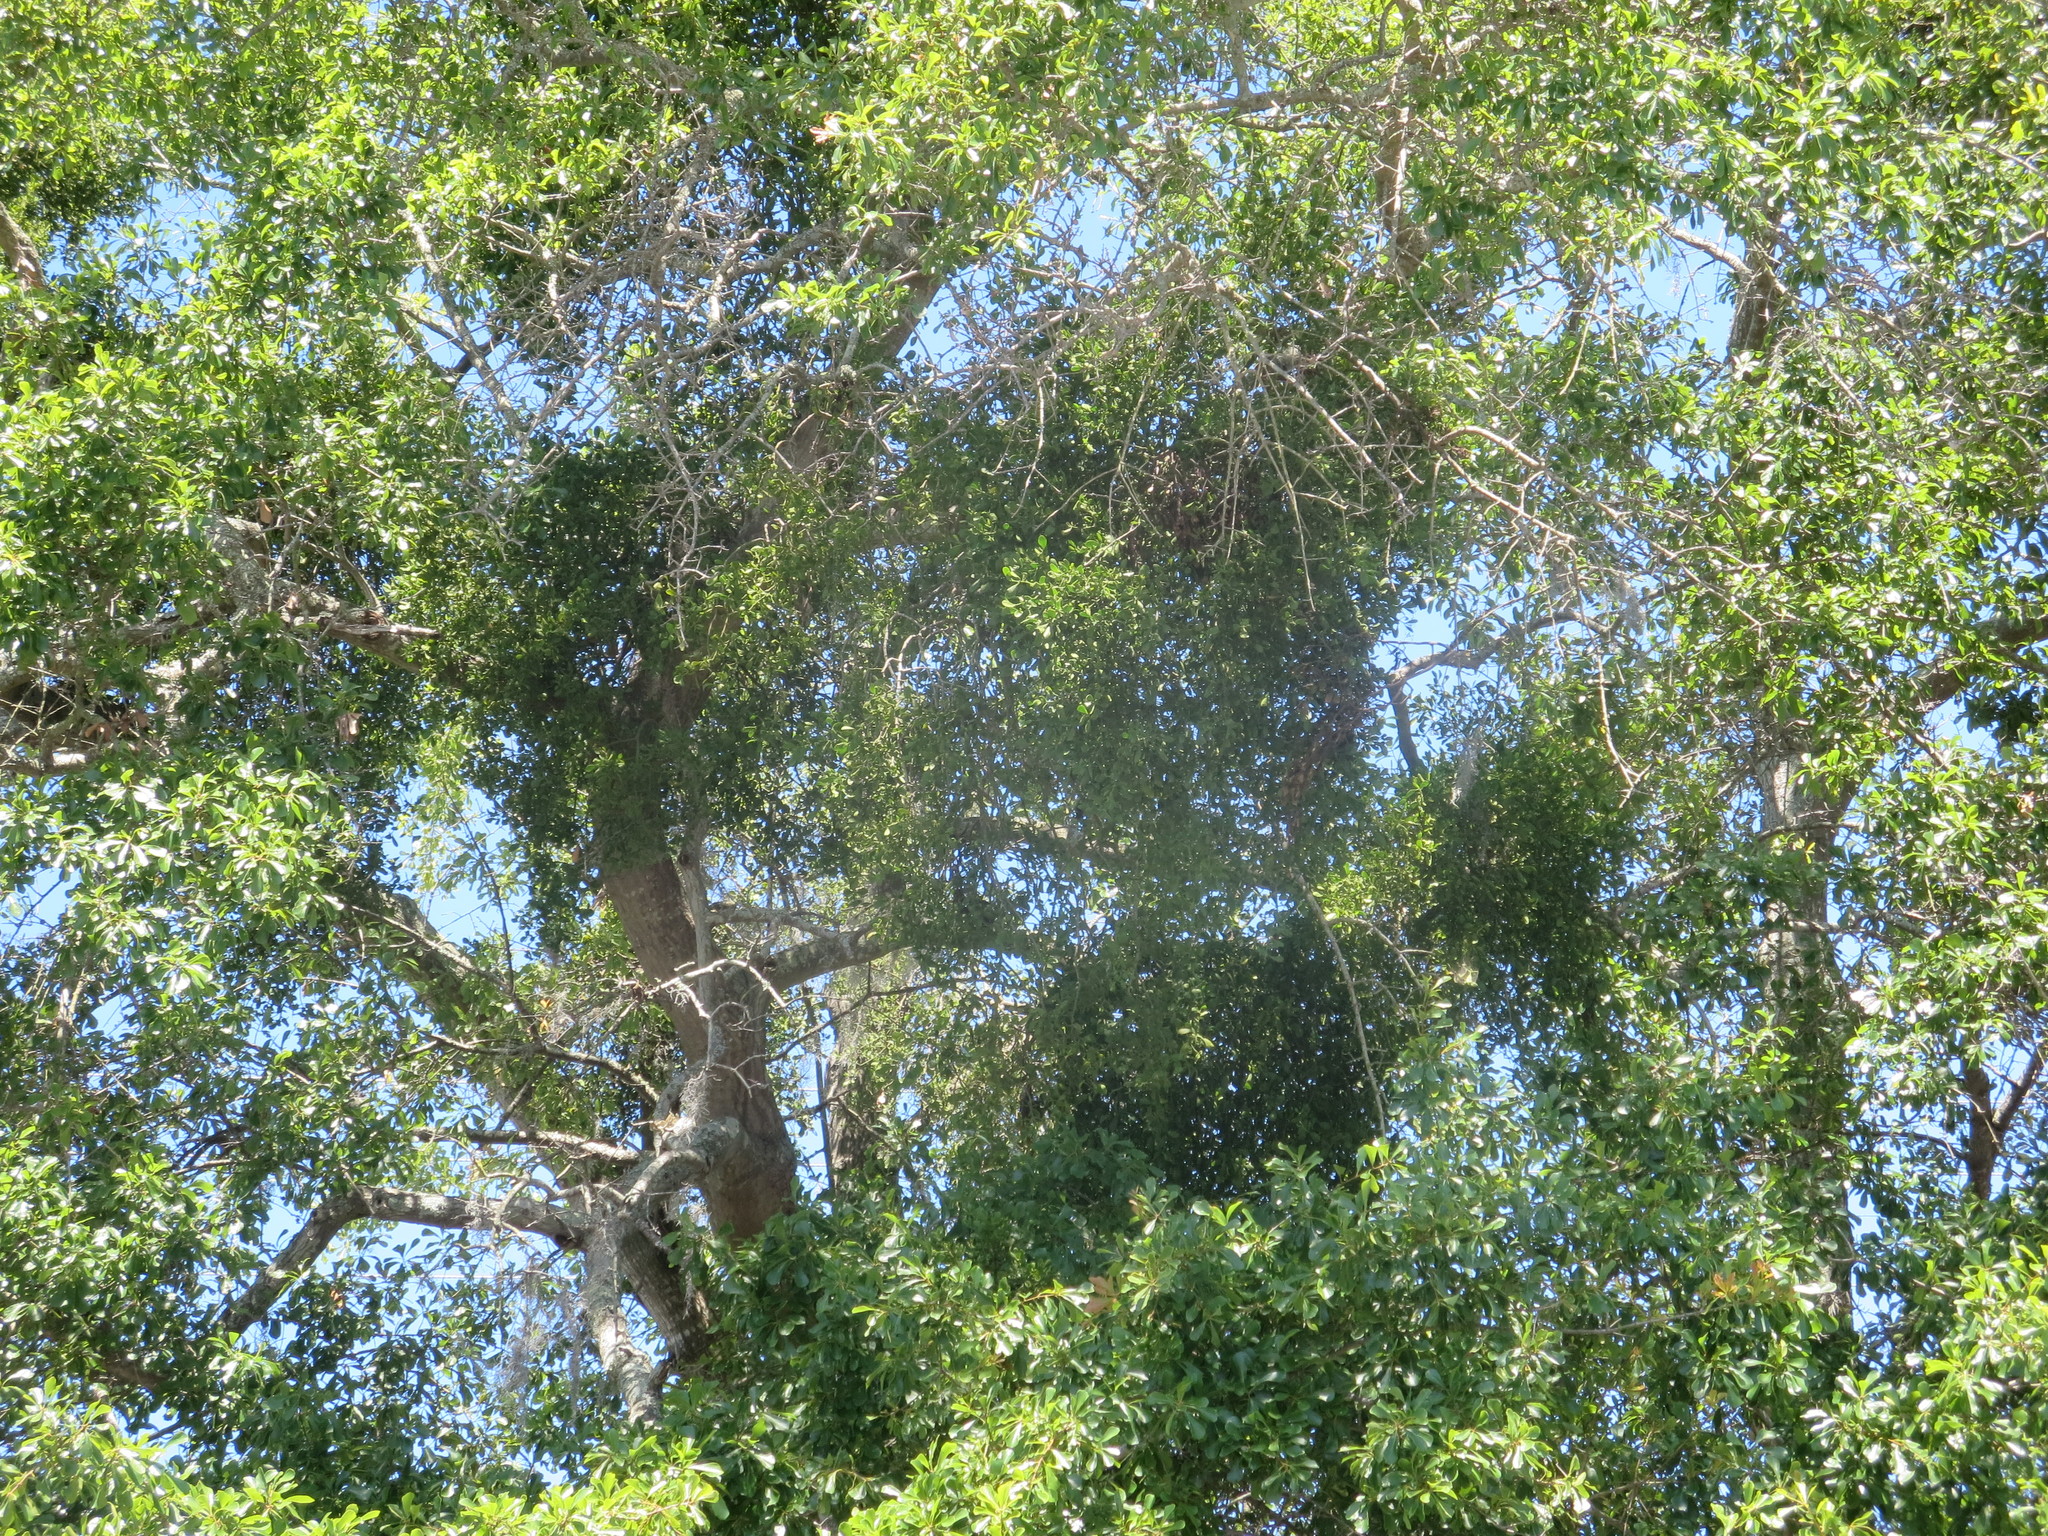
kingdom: Plantae
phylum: Tracheophyta
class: Magnoliopsida
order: Santalales
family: Viscaceae
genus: Phoradendron
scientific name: Phoradendron leucarpum
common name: Pacific mistletoe
